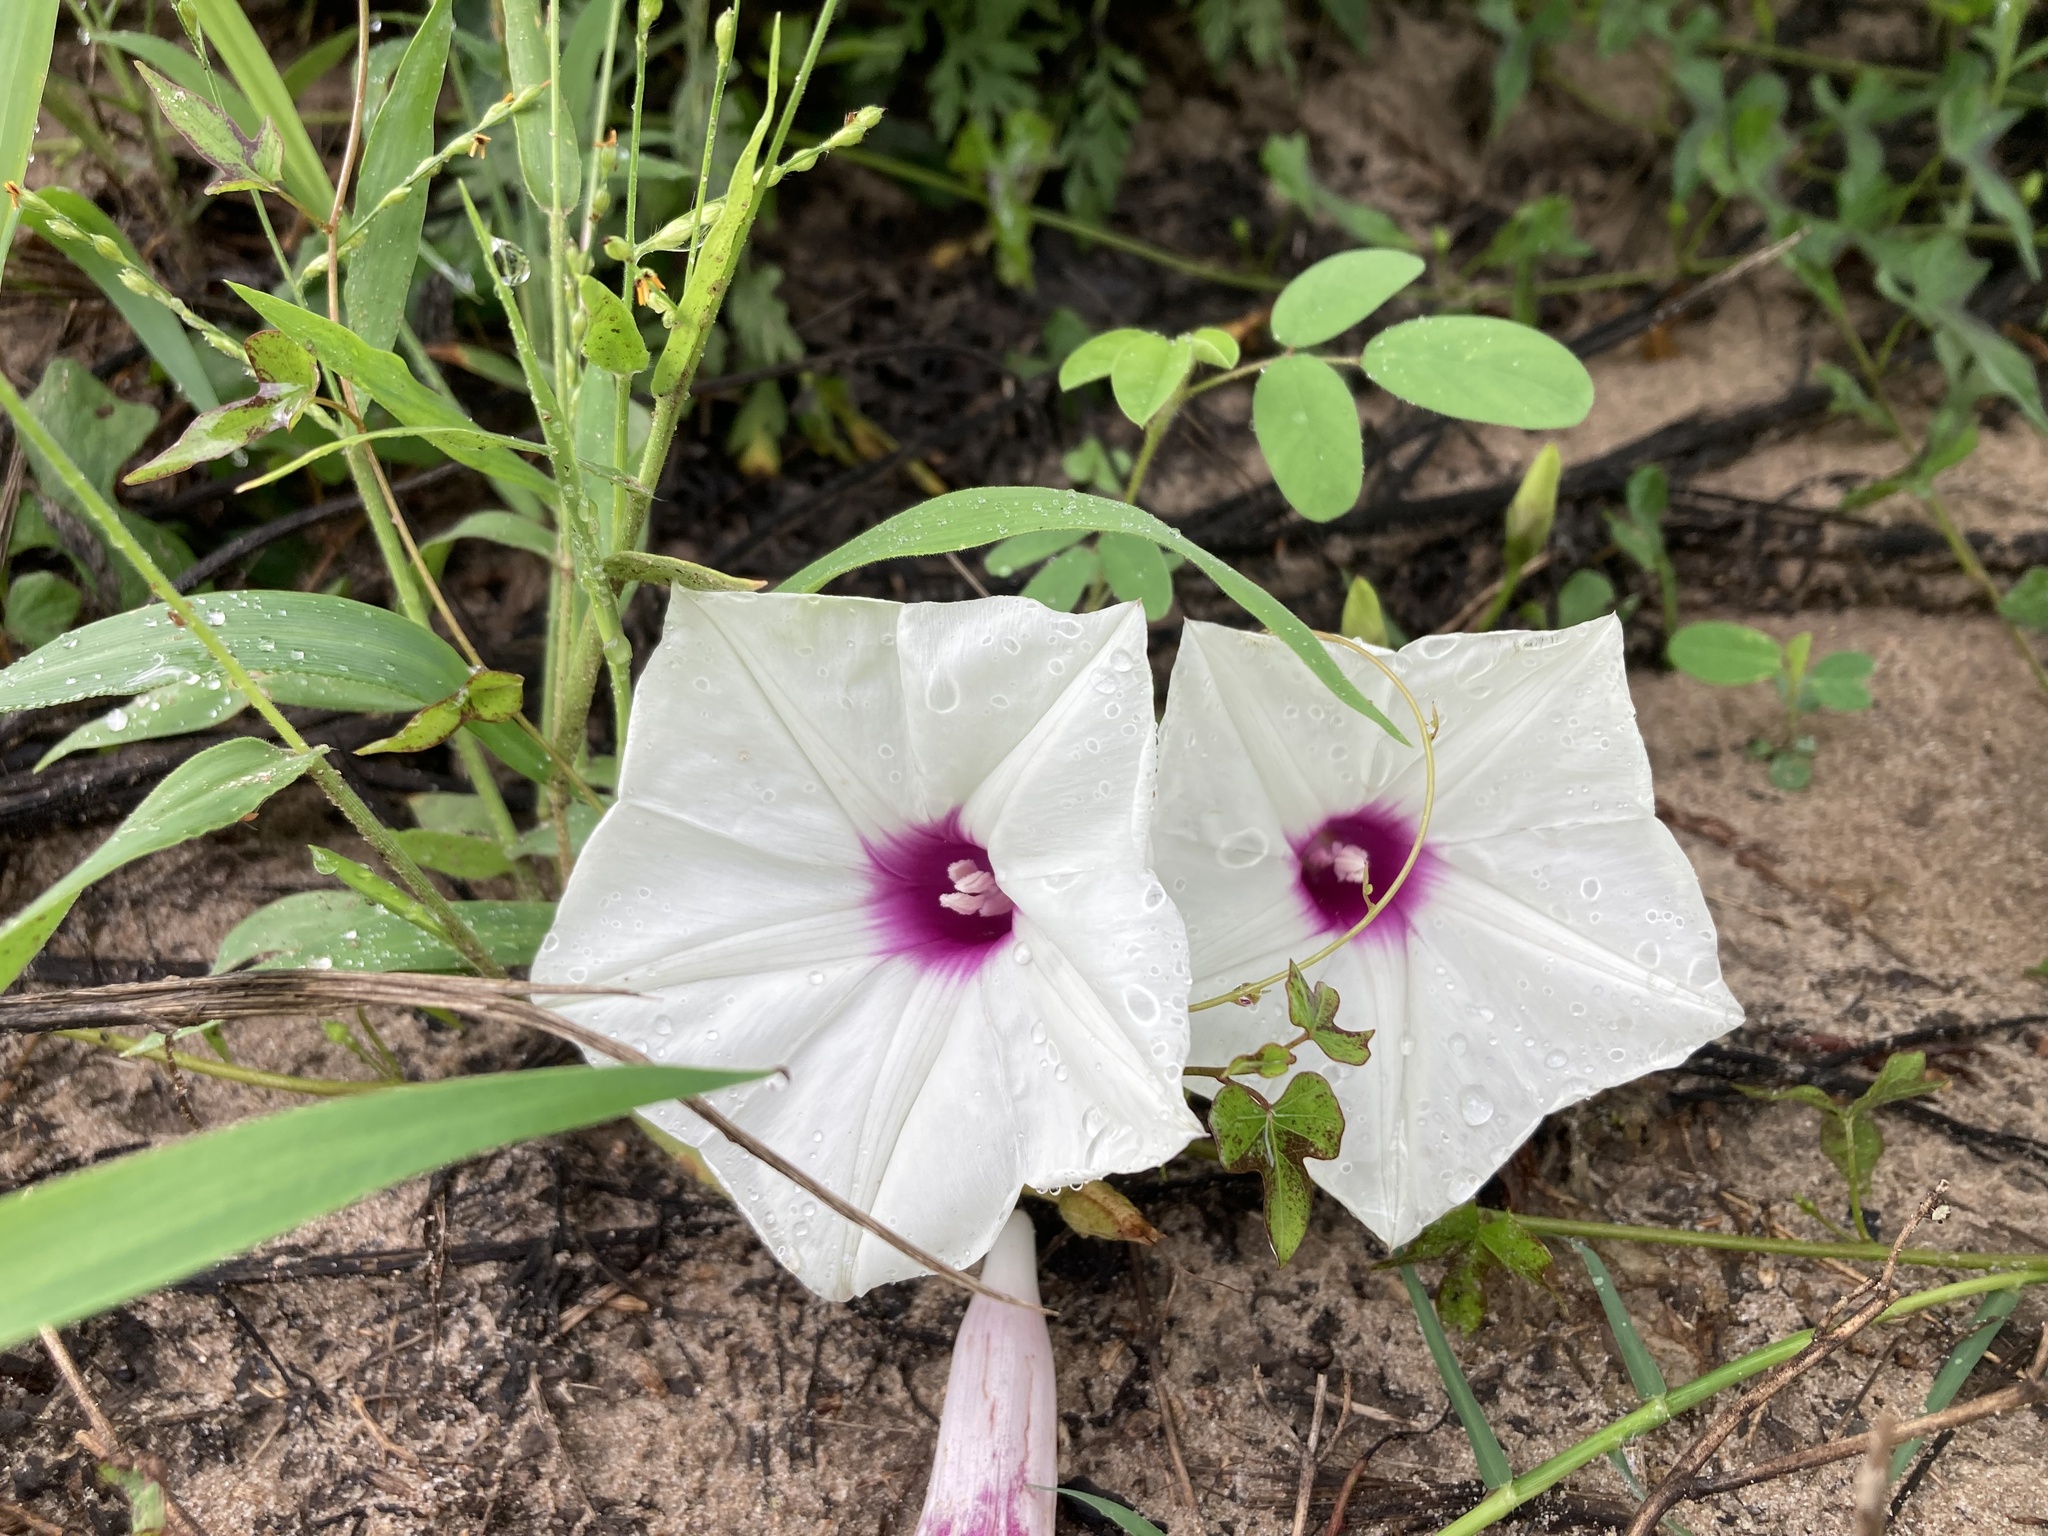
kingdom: Plantae
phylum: Tracheophyta
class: Magnoliopsida
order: Solanales
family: Convolvulaceae
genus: Ipomoea
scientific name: Ipomoea pandurata
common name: Man-of-the-earth
